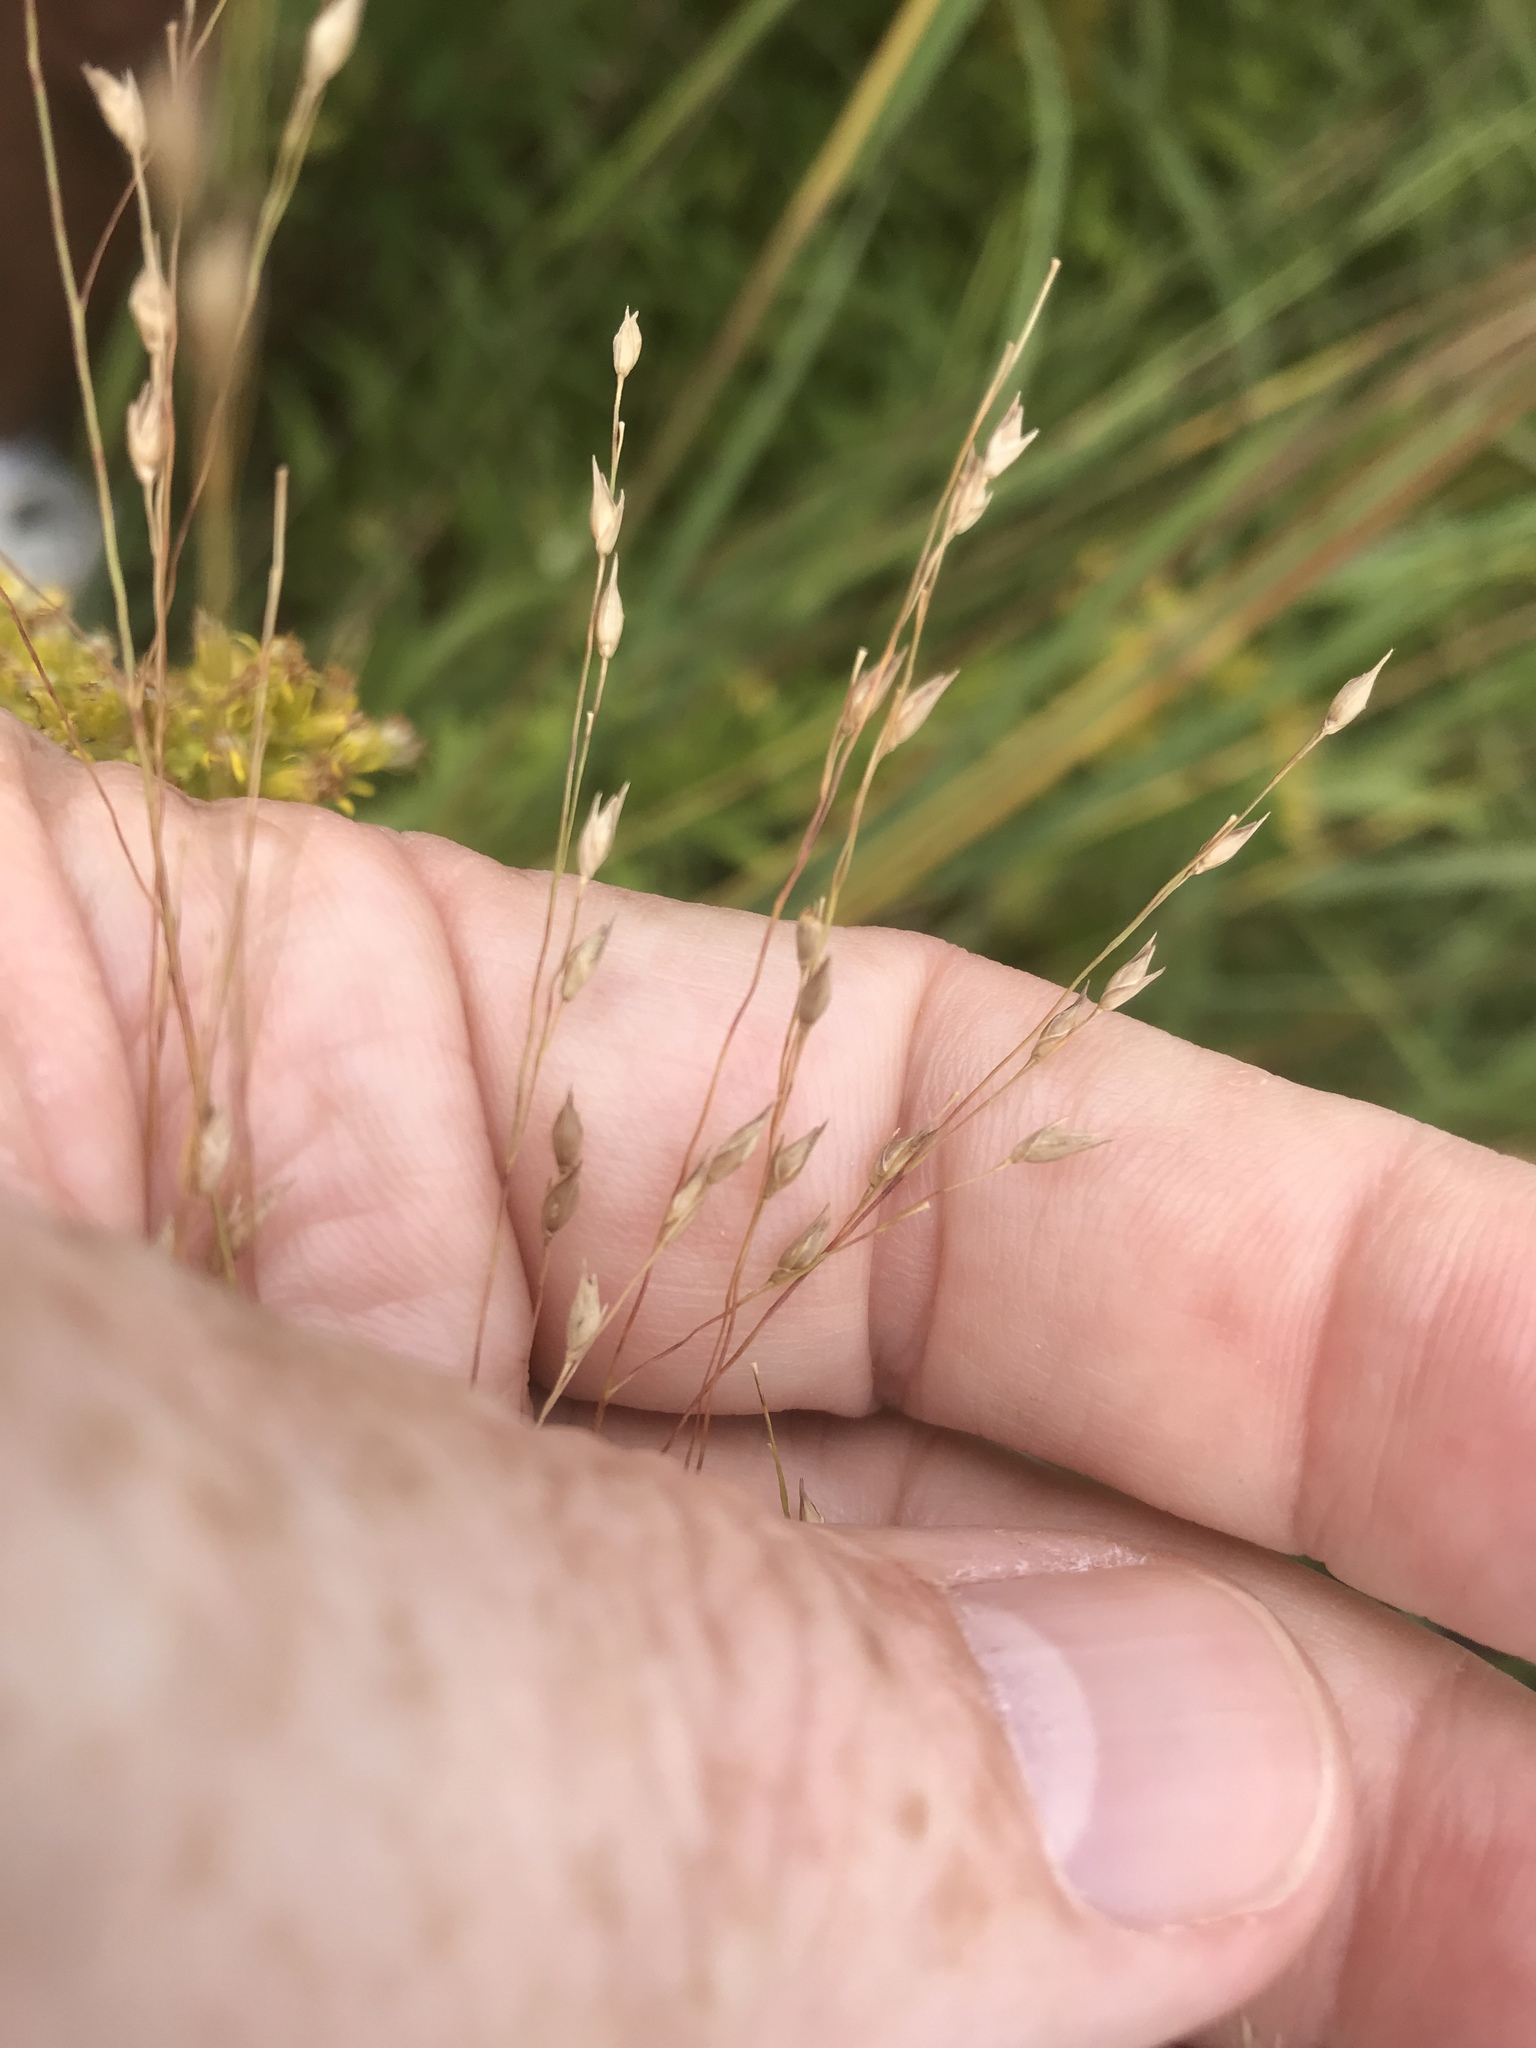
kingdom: Plantae
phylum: Tracheophyta
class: Liliopsida
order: Poales
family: Poaceae
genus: Panicum
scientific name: Panicum virgatum
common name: Switchgrass
